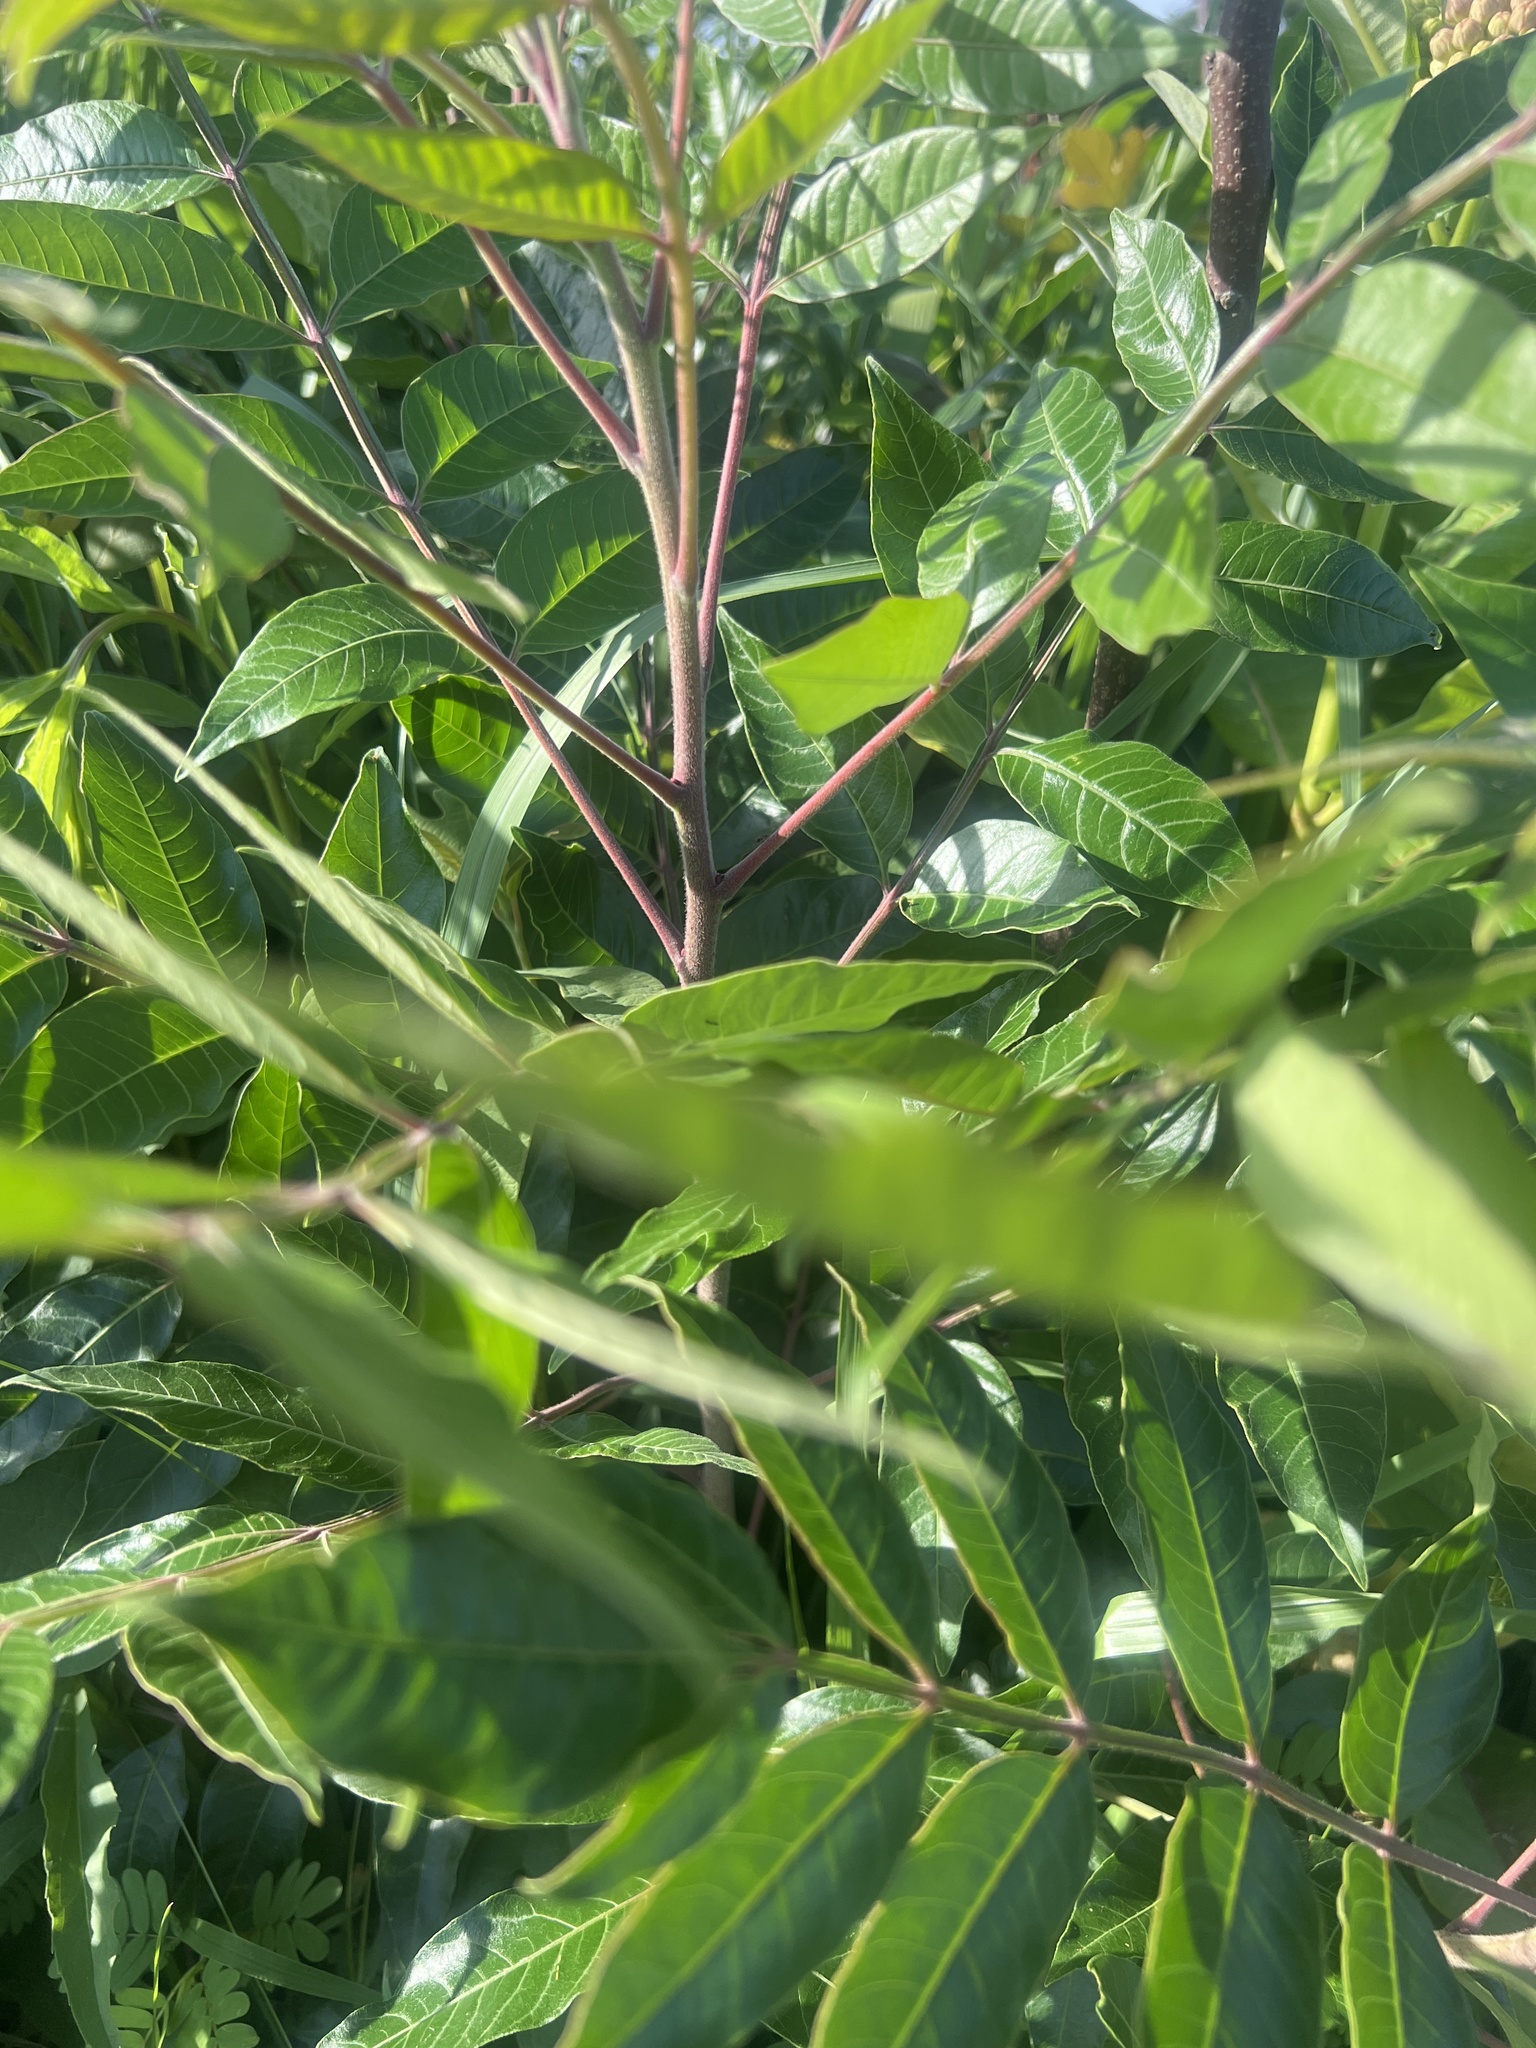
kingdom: Plantae
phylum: Tracheophyta
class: Magnoliopsida
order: Sapindales
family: Anacardiaceae
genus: Rhus
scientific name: Rhus copallina
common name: Shining sumac
